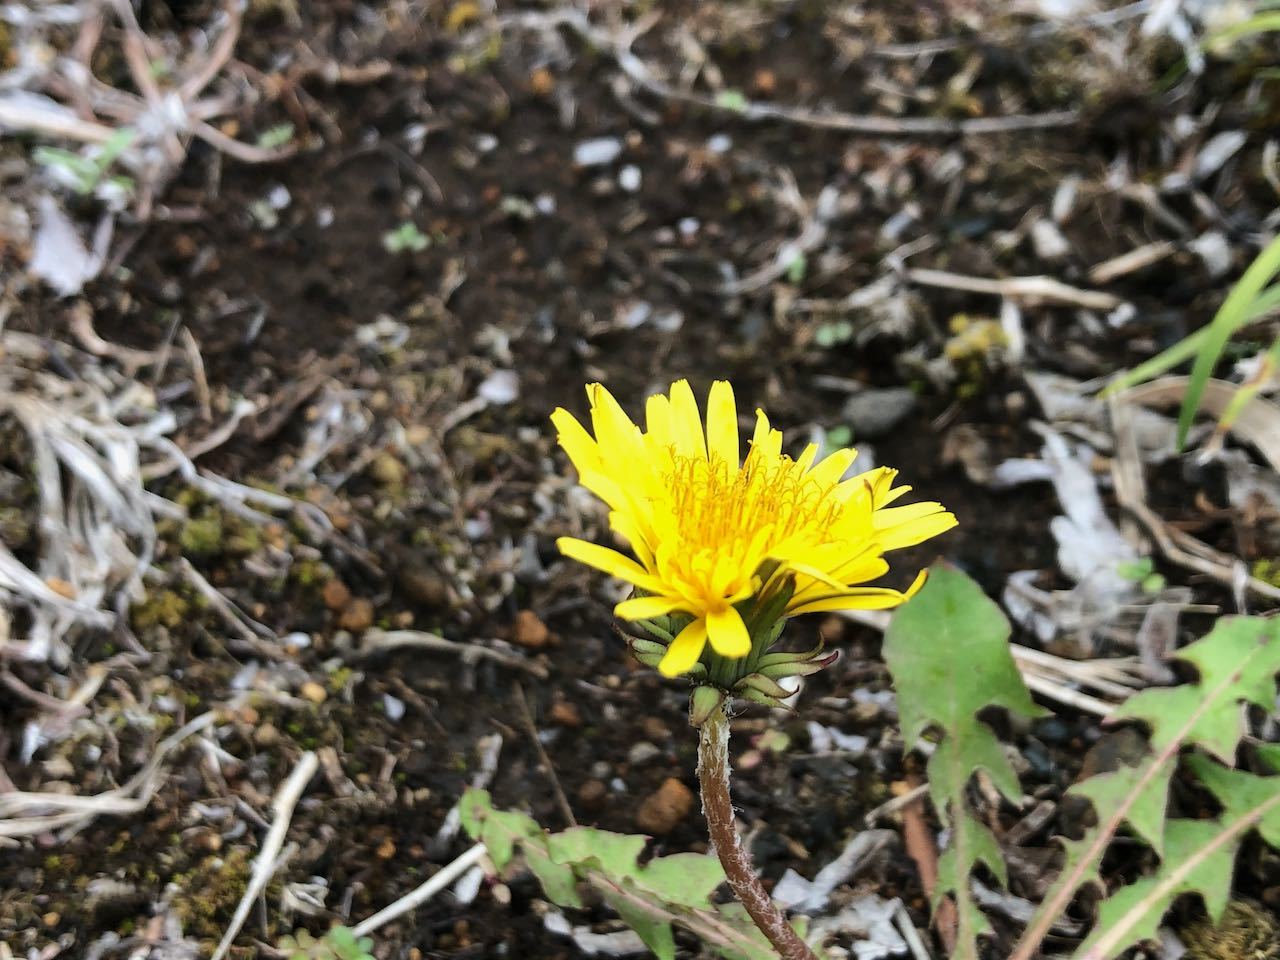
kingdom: Plantae
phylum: Tracheophyta
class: Magnoliopsida
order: Asterales
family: Asteraceae
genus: Taraxacum
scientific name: Taraxacum officinale
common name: Common dandelion
